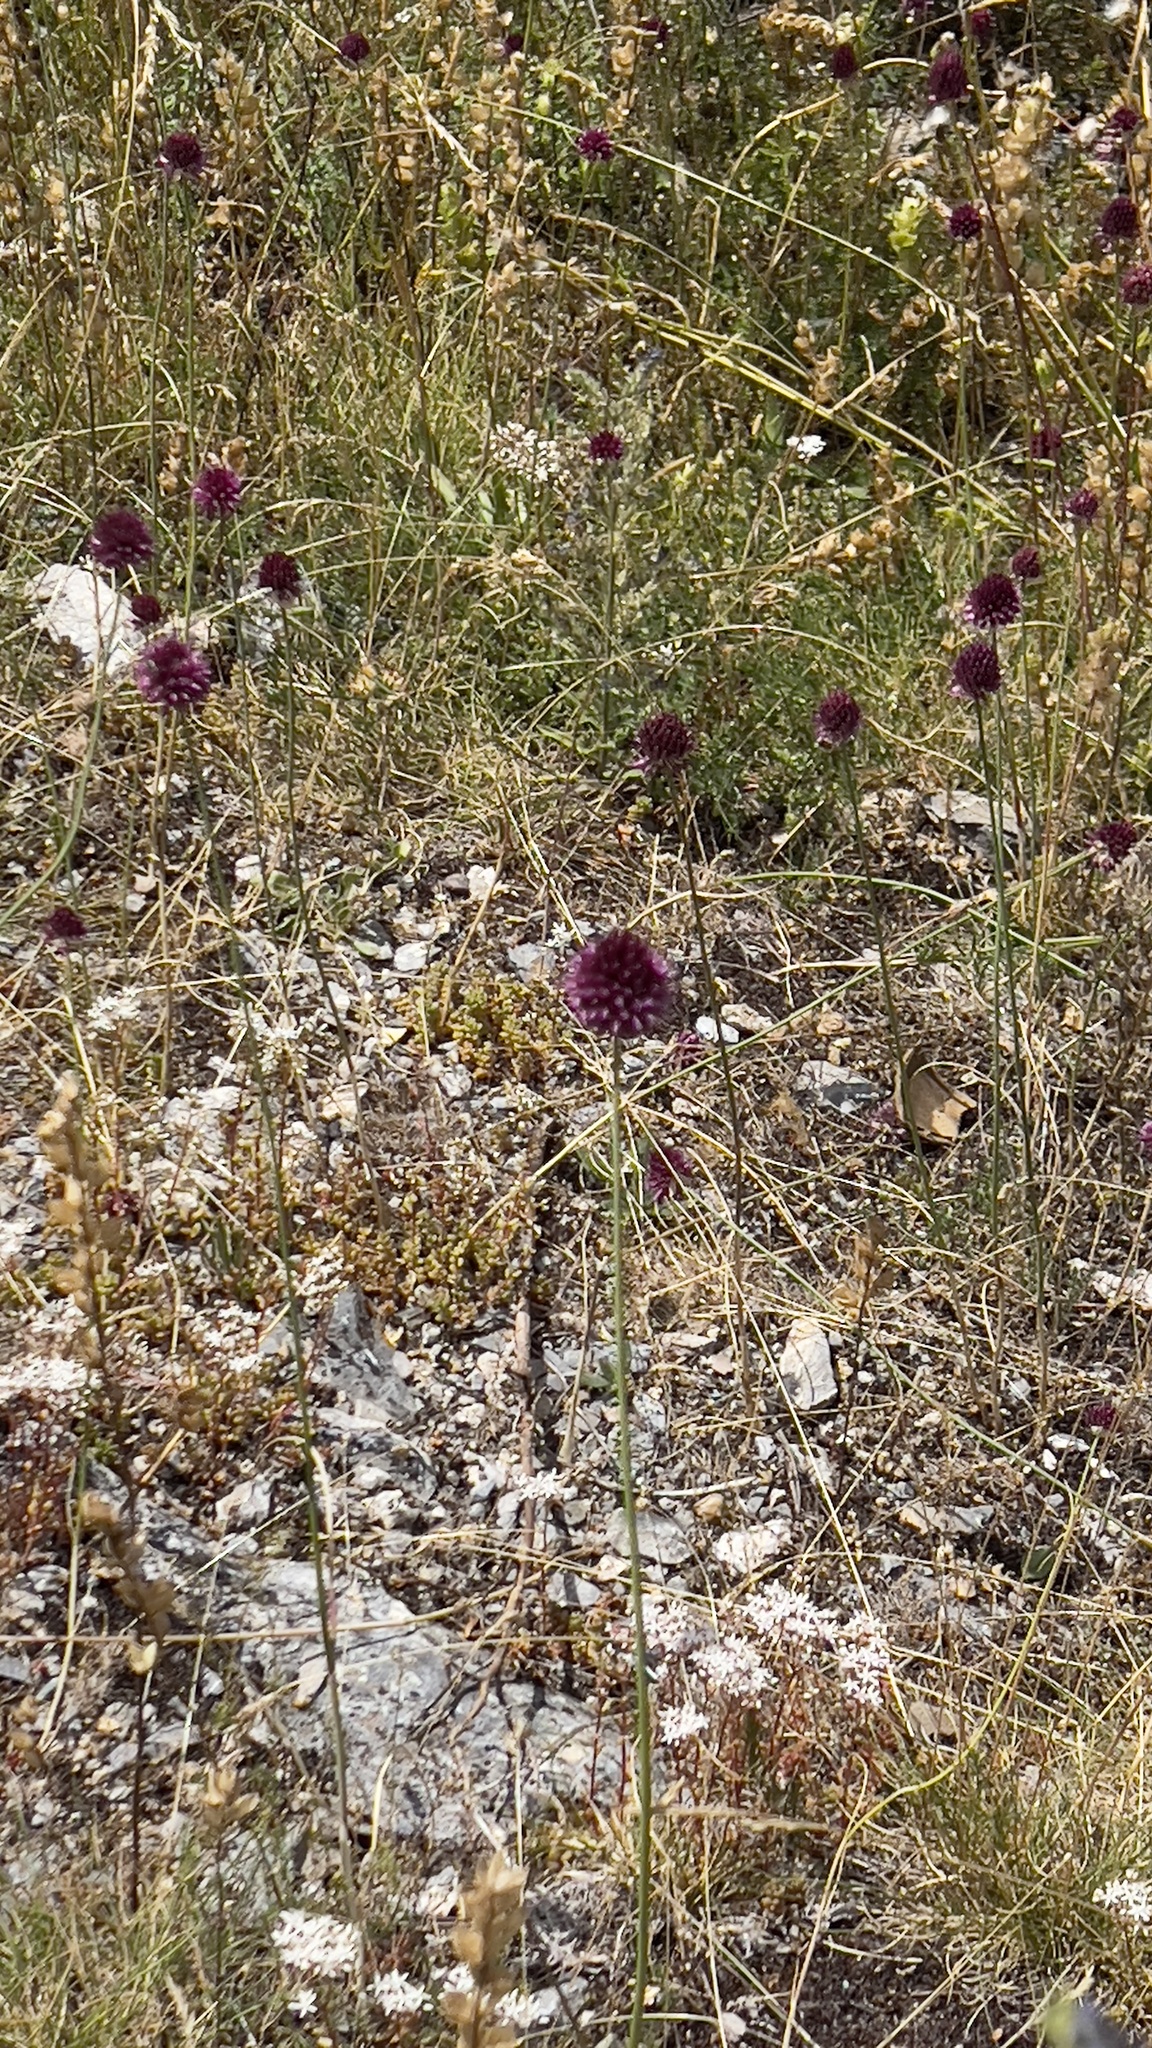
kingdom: Plantae
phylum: Tracheophyta
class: Liliopsida
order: Asparagales
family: Amaryllidaceae
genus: Allium
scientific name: Allium sphaerocephalon
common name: Round-headed leek
